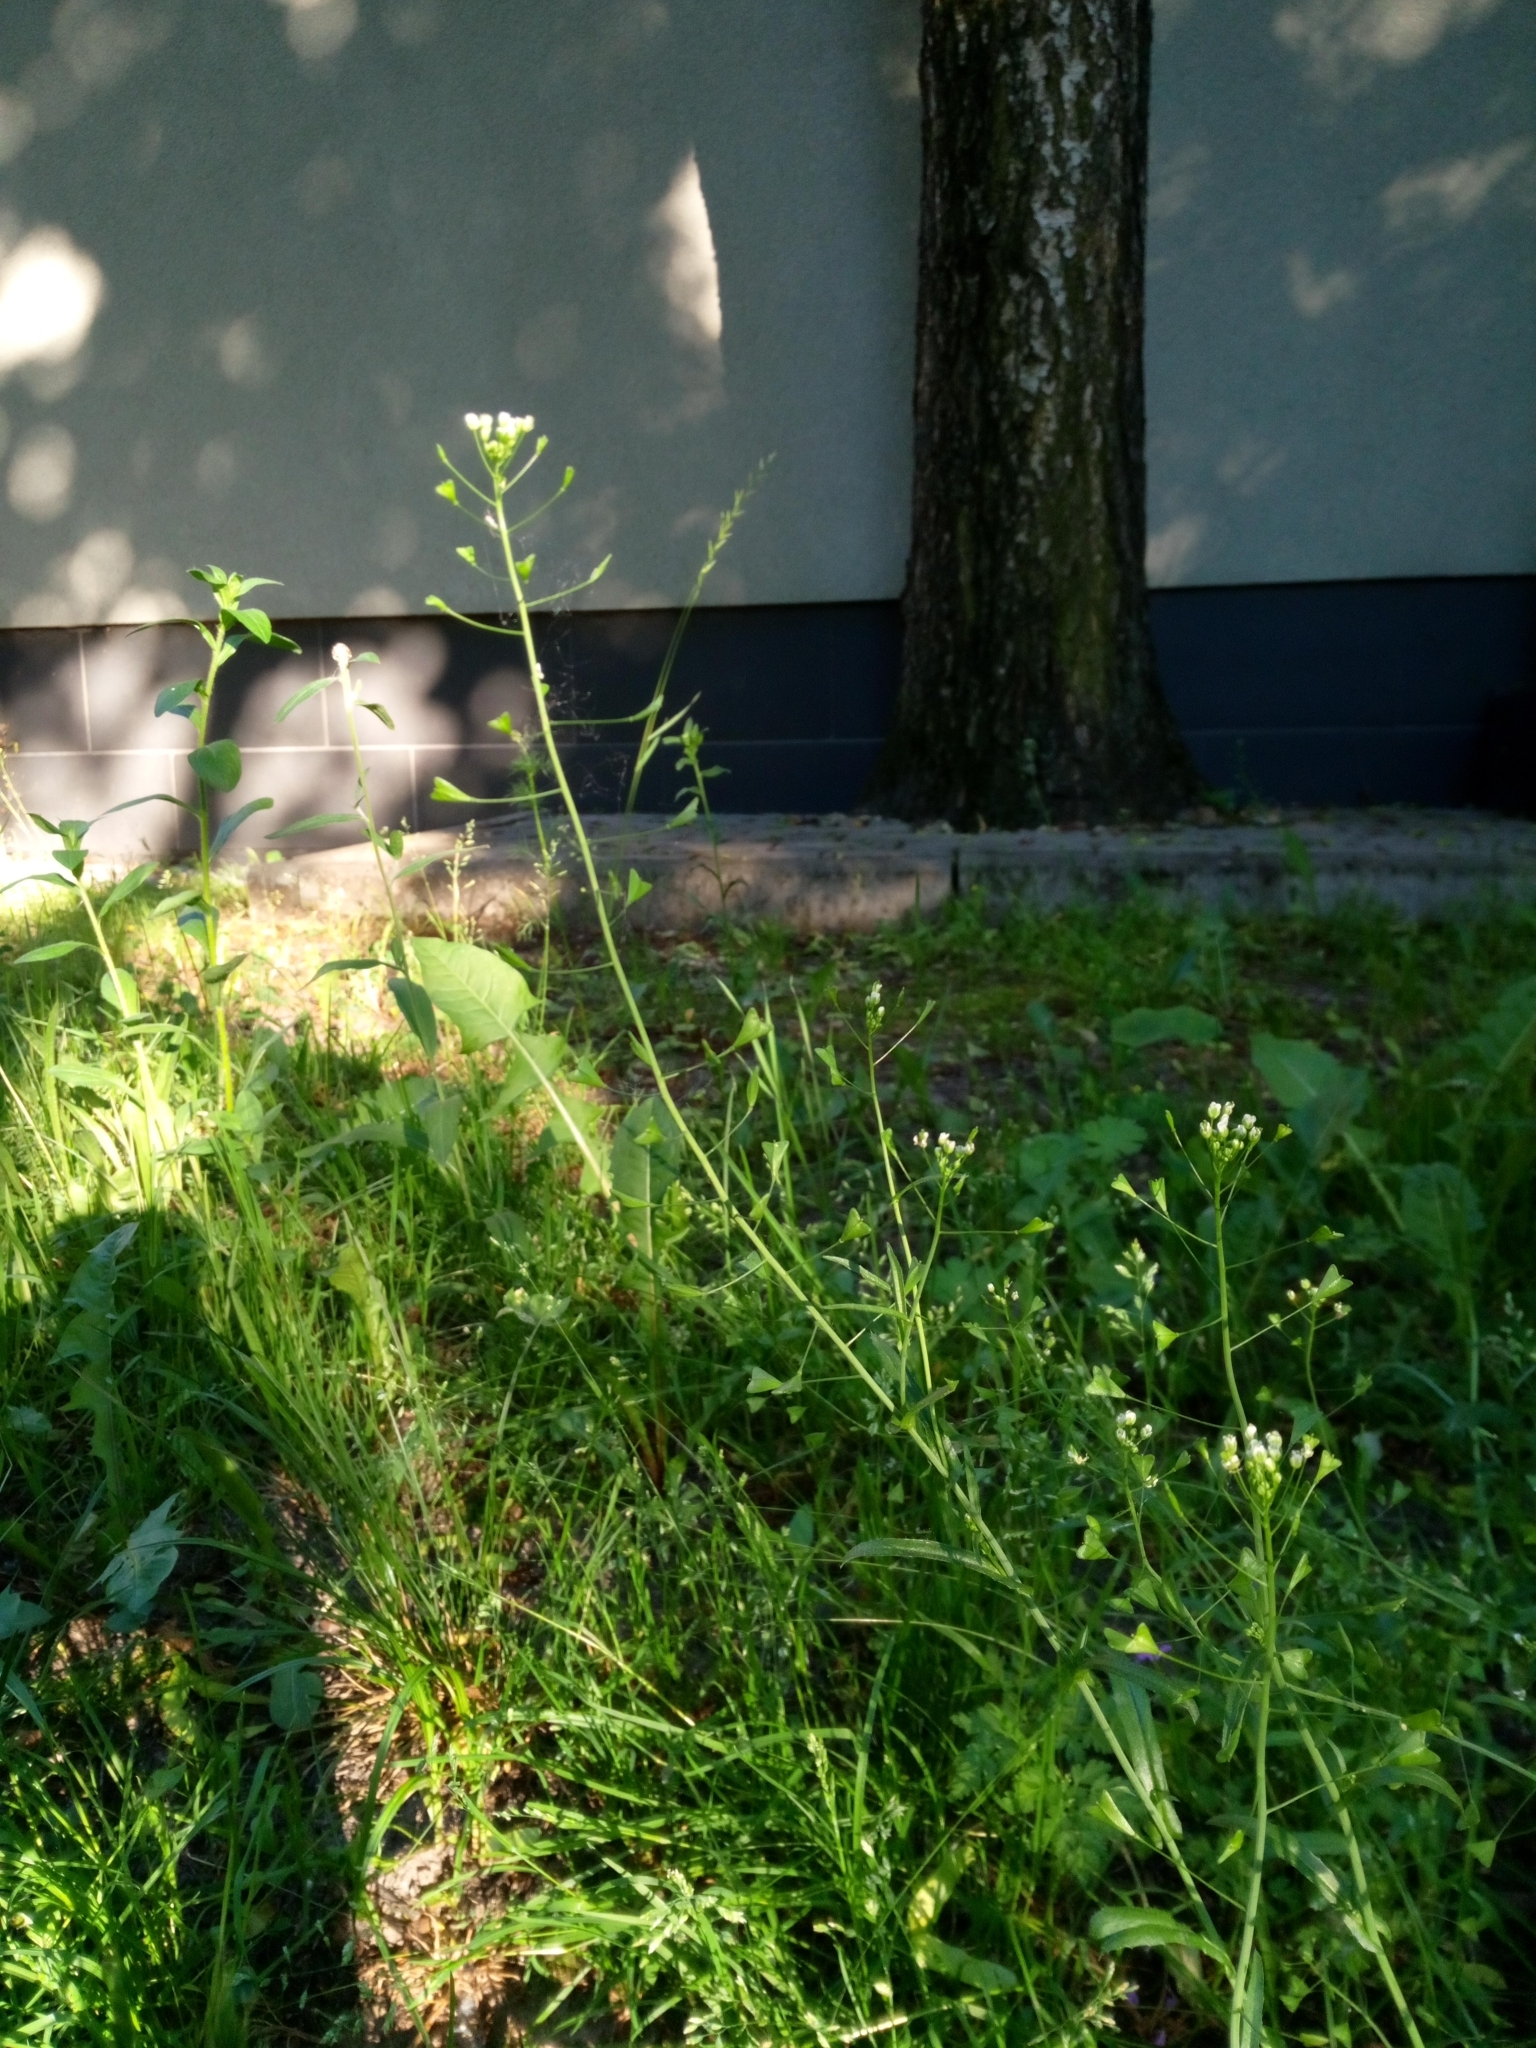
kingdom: Plantae
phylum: Tracheophyta
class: Magnoliopsida
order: Brassicales
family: Brassicaceae
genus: Capsella
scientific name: Capsella bursa-pastoris
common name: Shepherd's purse
